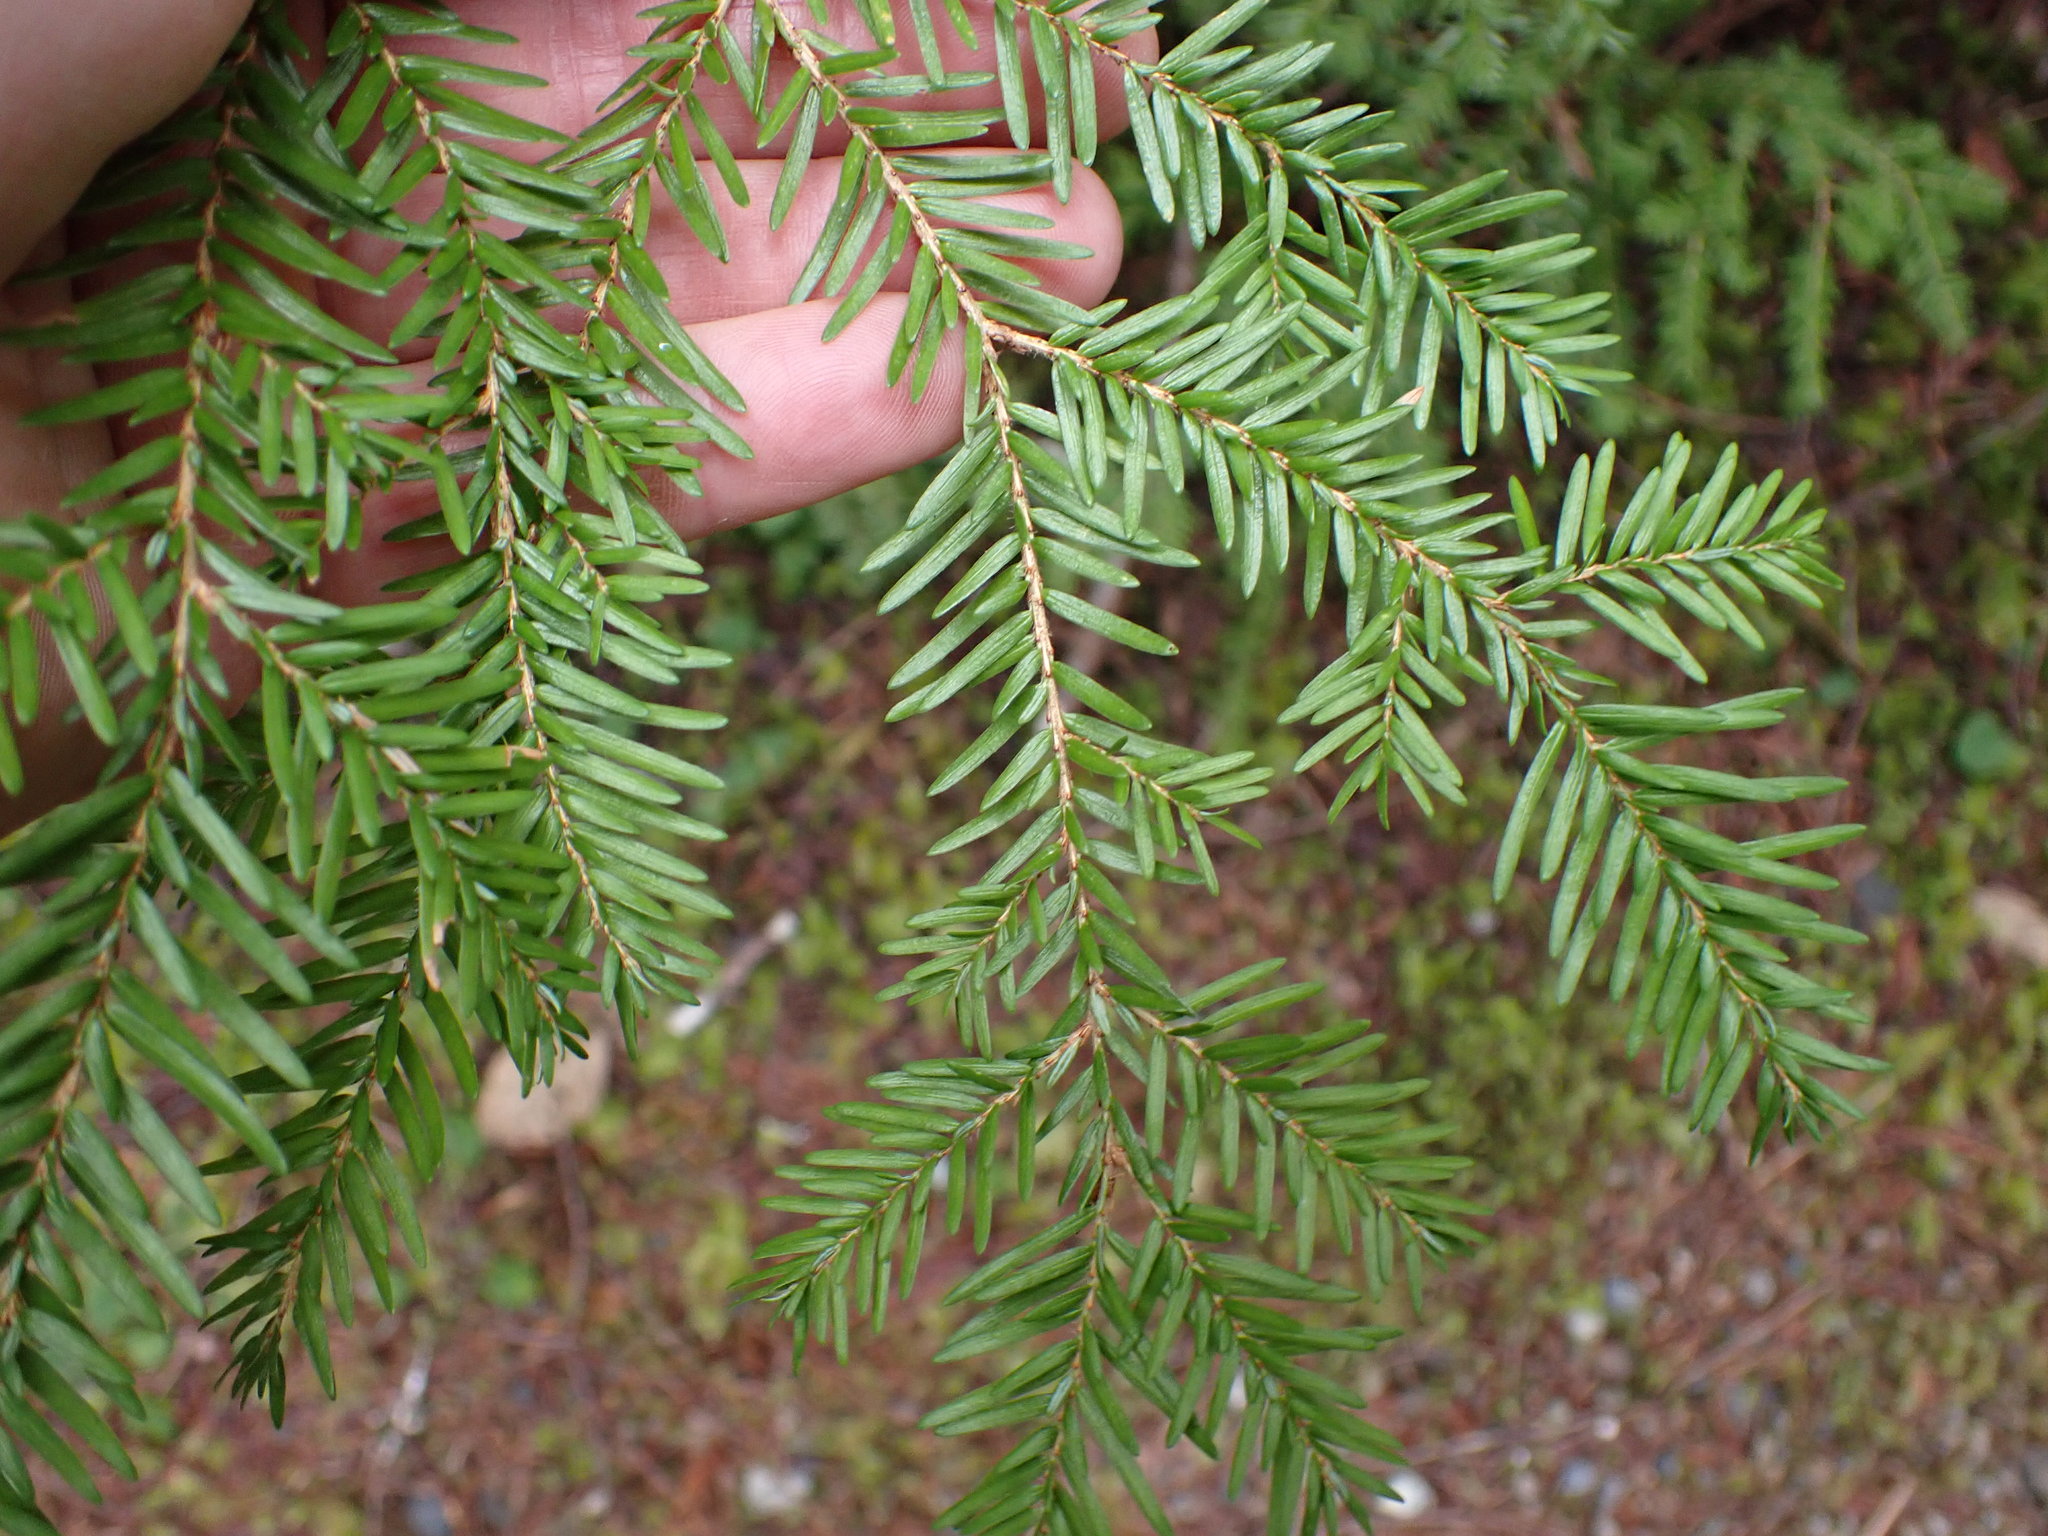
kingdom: Plantae
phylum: Tracheophyta
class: Pinopsida
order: Pinales
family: Pinaceae
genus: Tsuga
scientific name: Tsuga heterophylla
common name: Western hemlock
